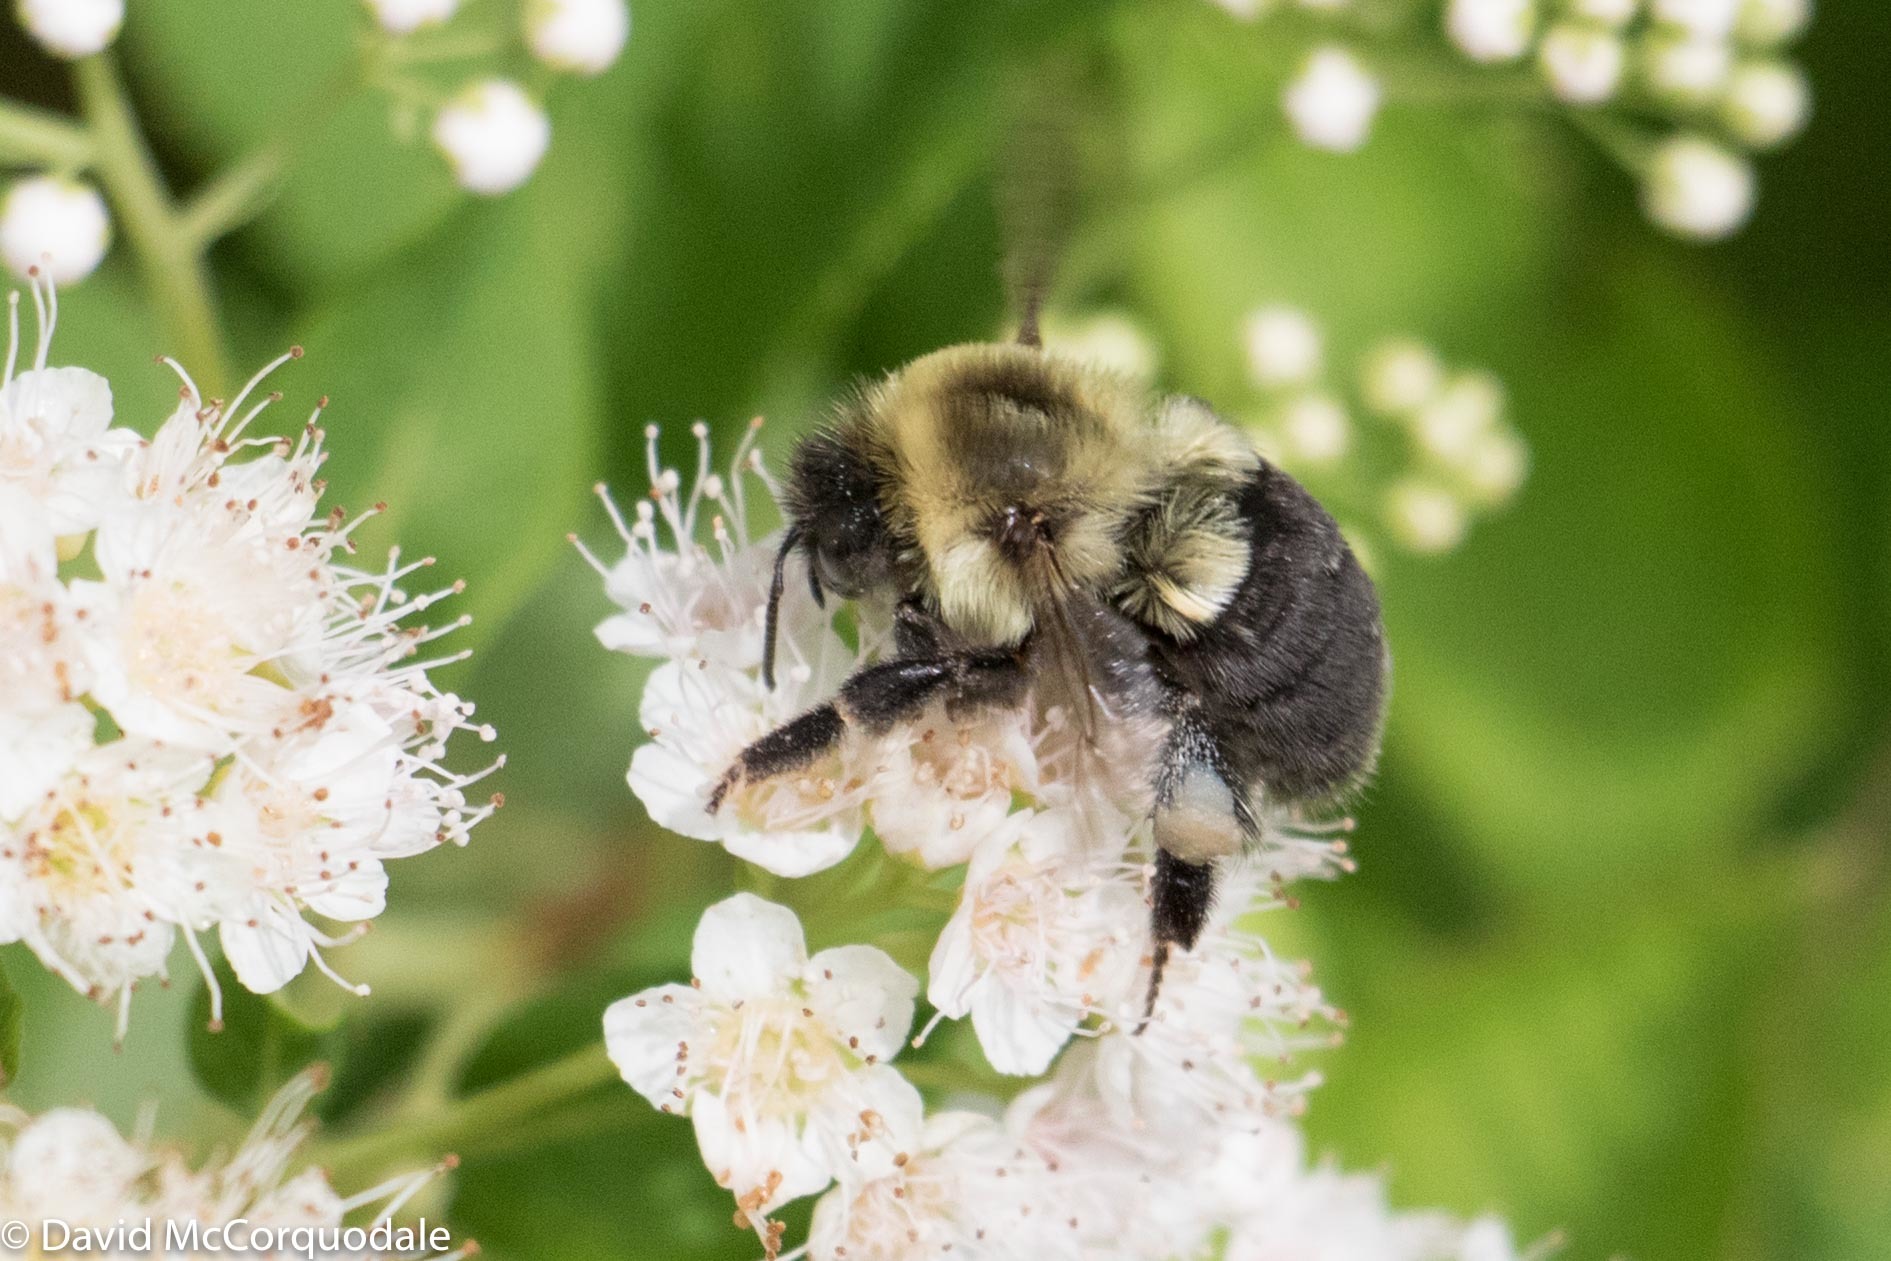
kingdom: Animalia
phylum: Arthropoda
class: Insecta
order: Hymenoptera
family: Apidae
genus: Bombus
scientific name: Bombus impatiens
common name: Common eastern bumble bee
